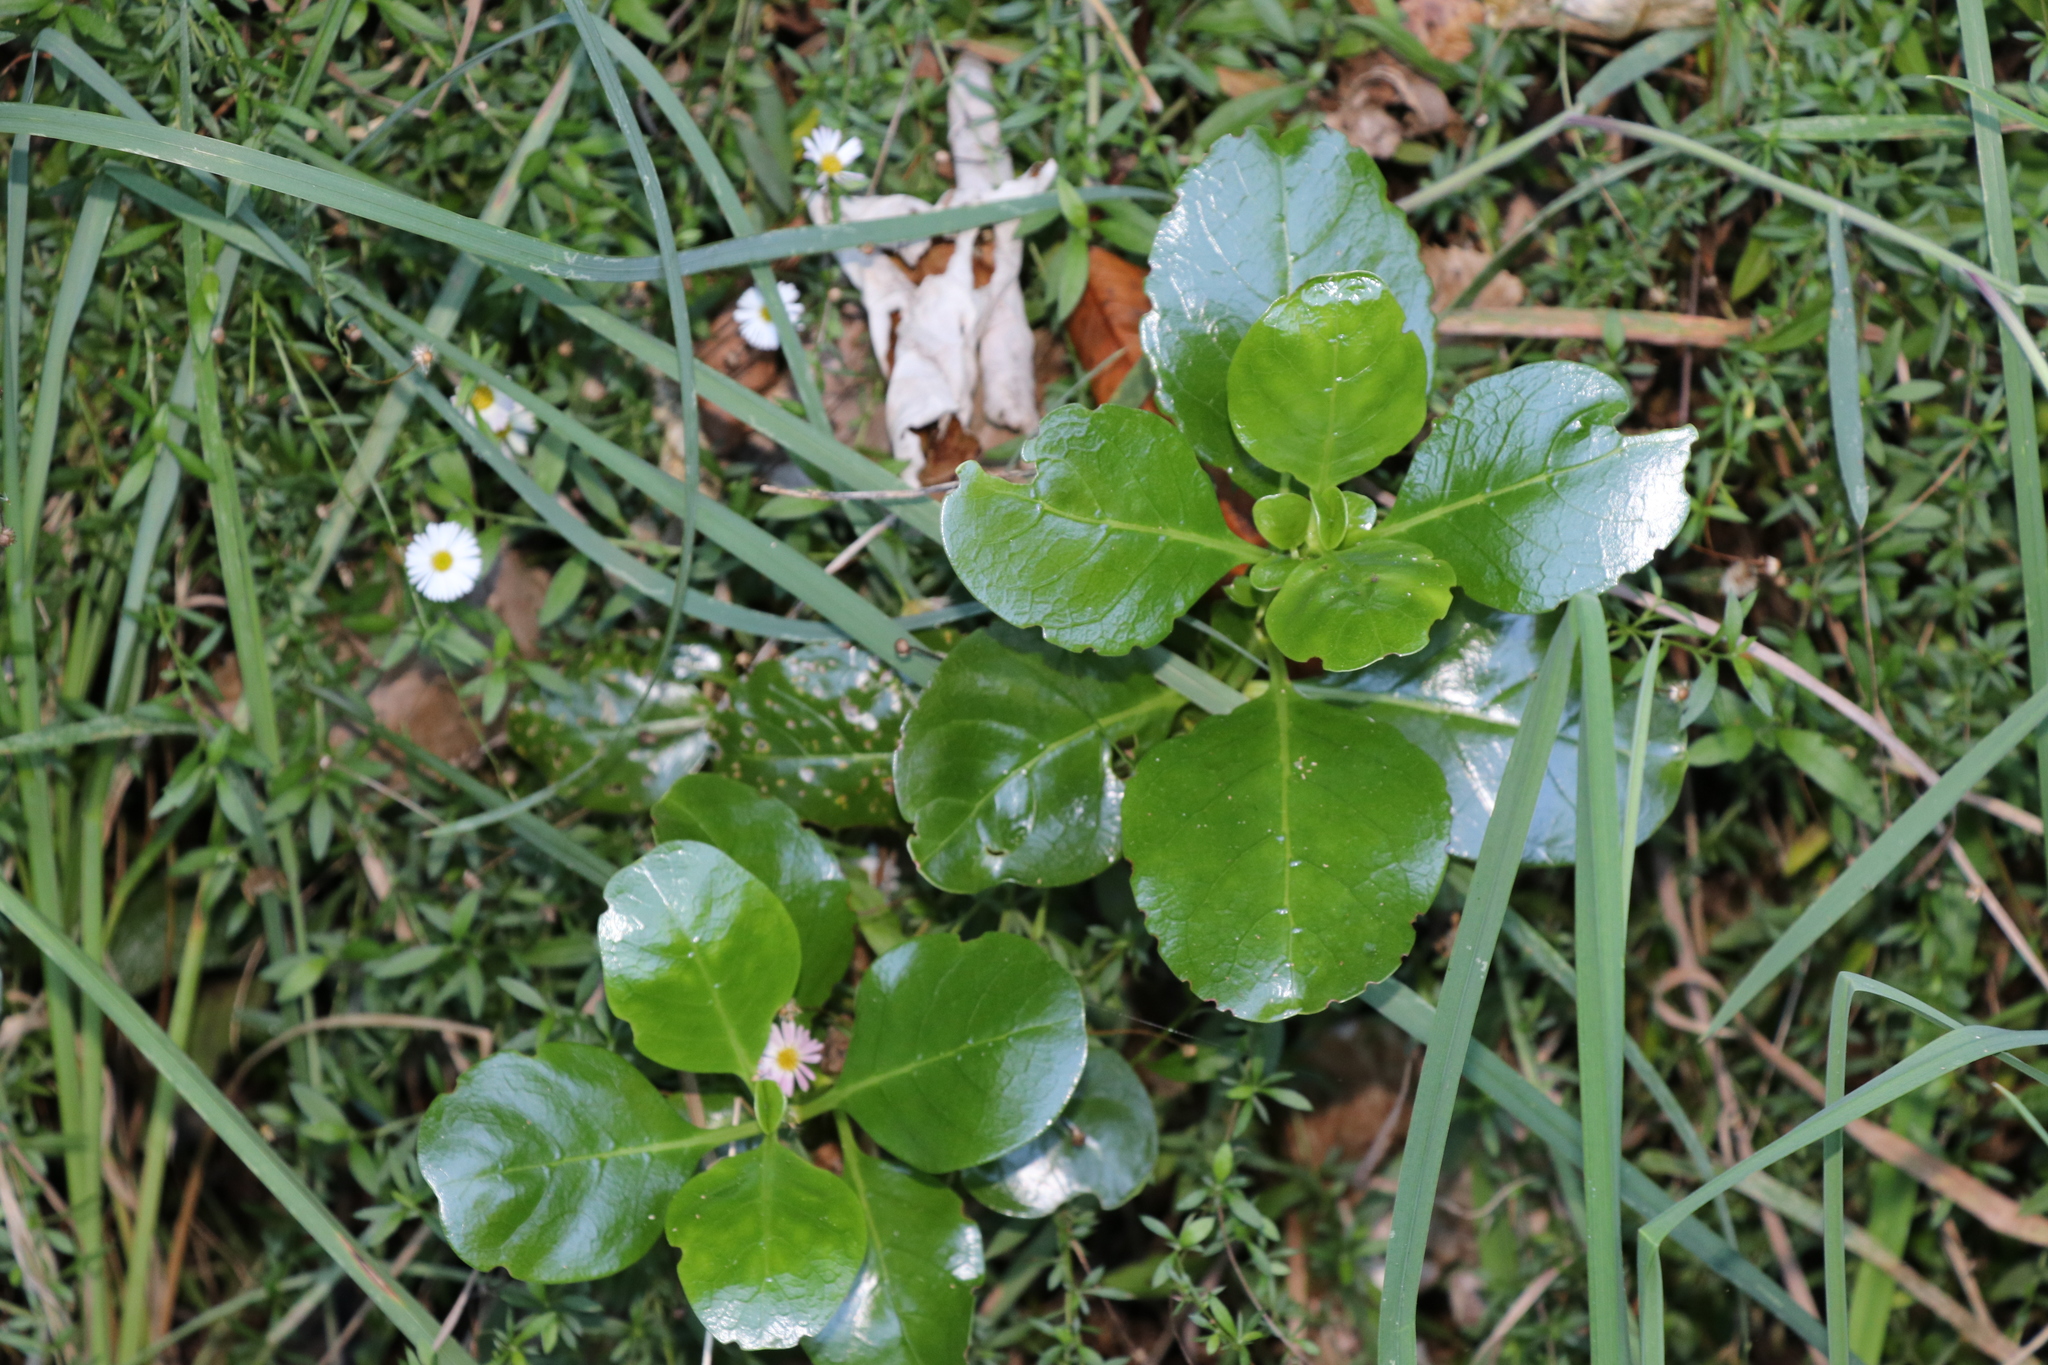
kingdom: Plantae
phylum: Tracheophyta
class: Magnoliopsida
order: Gentianales
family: Rubiaceae
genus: Coprosma
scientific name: Coprosma repens
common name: Tree bedstraw
